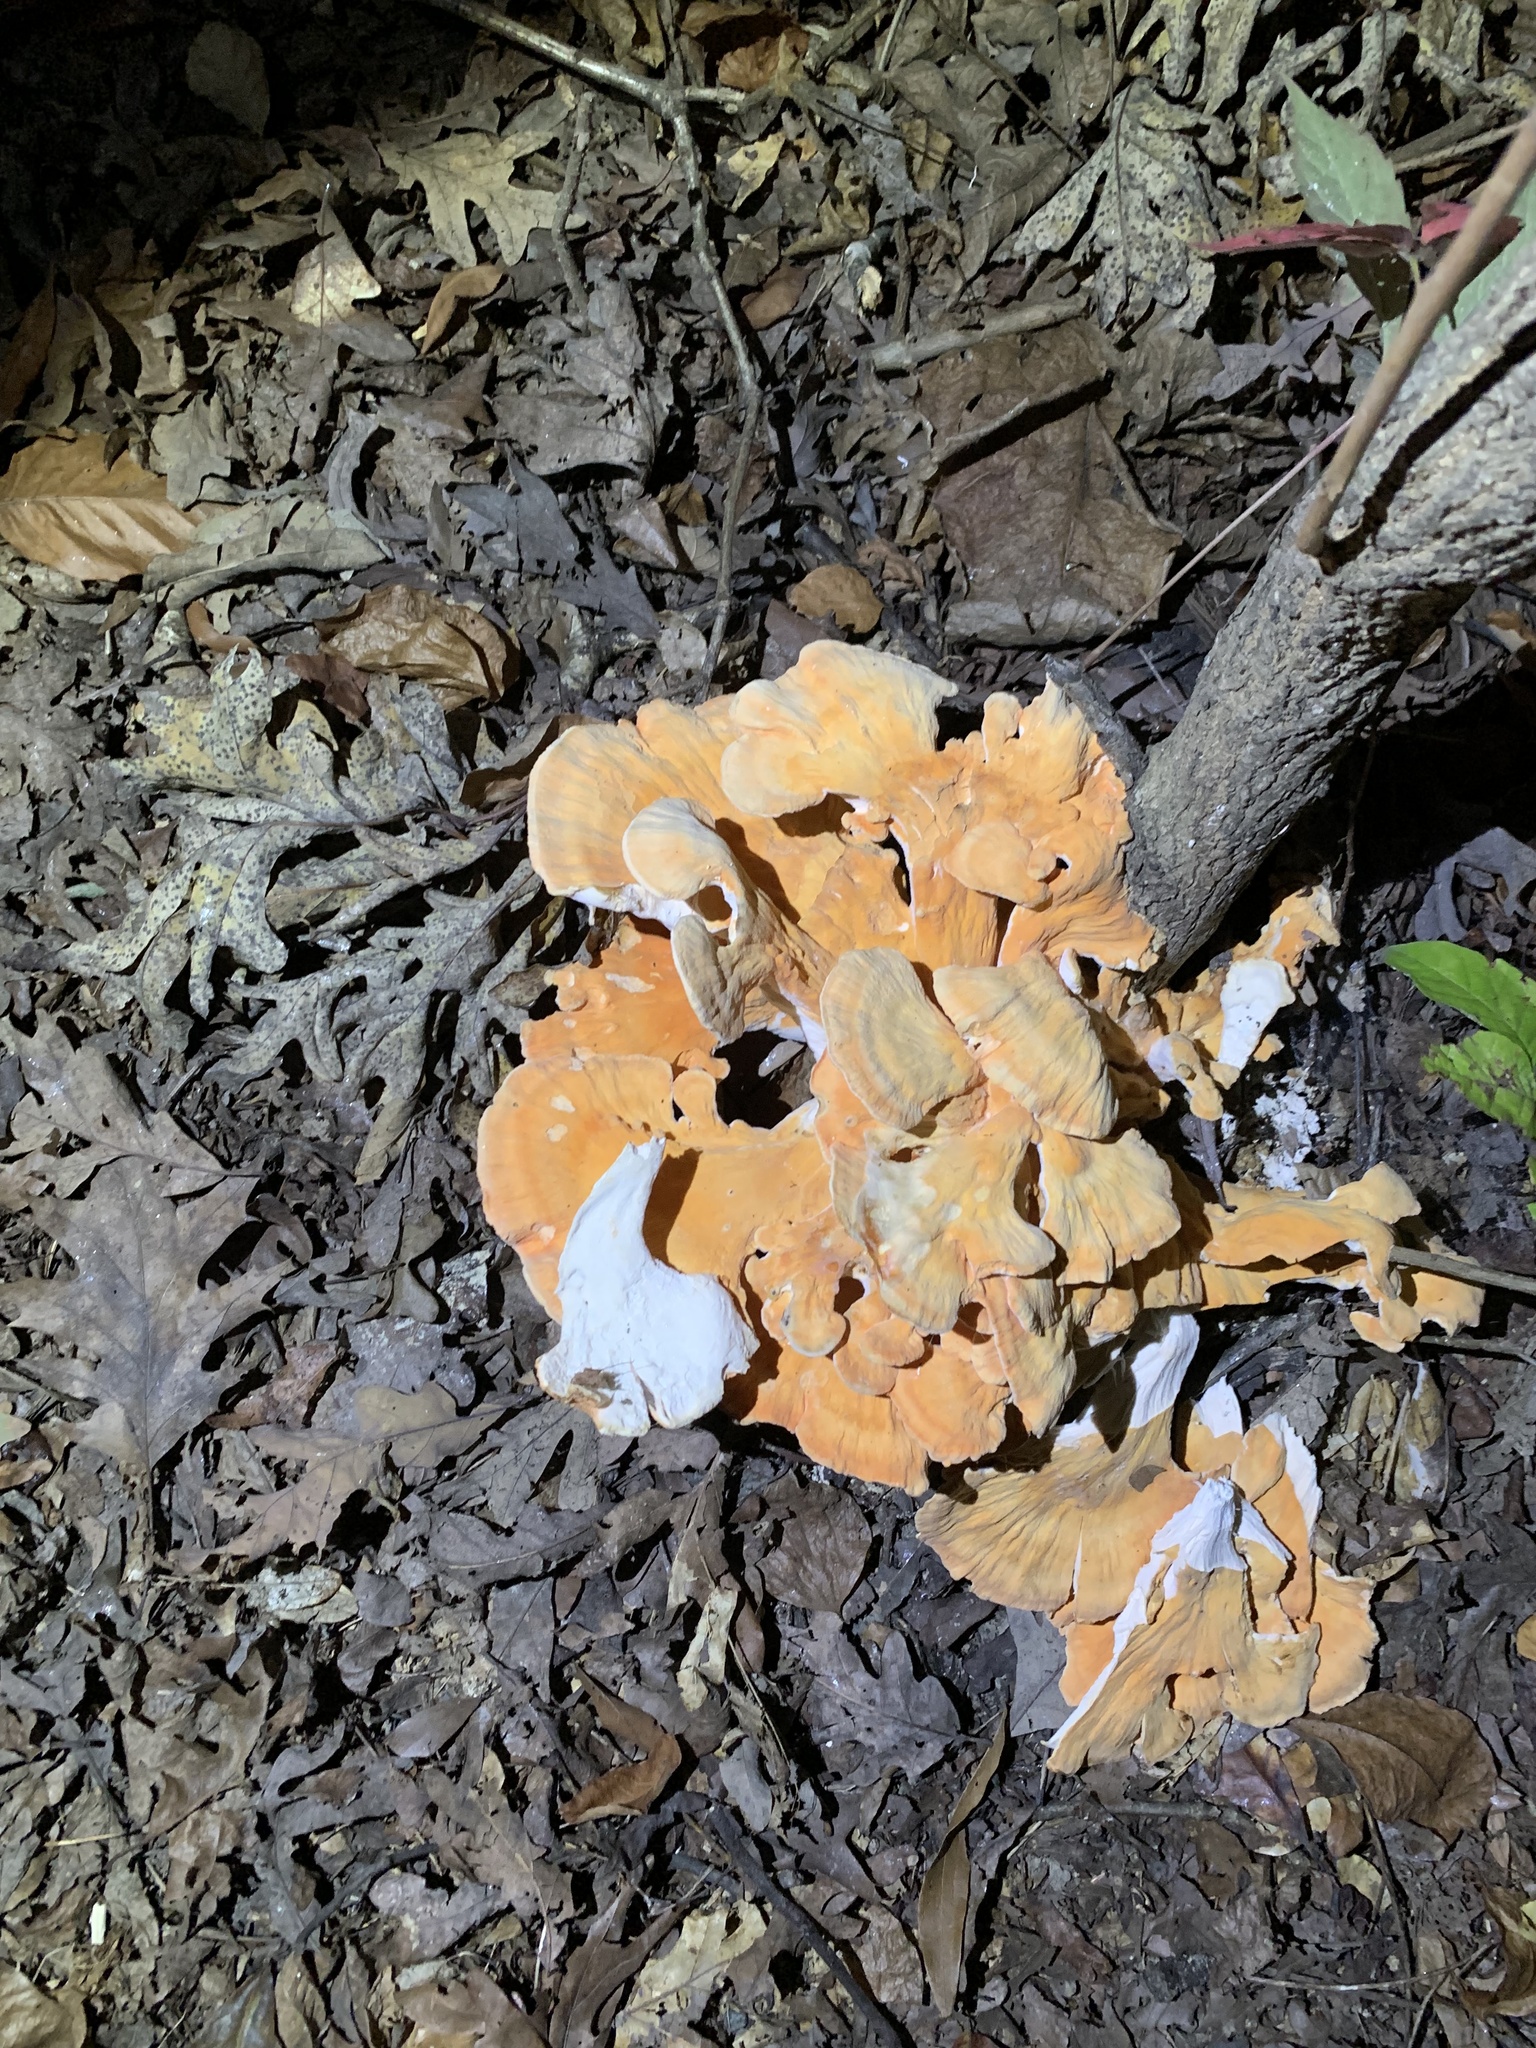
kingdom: Fungi
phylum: Basidiomycota
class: Agaricomycetes
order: Polyporales
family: Laetiporaceae
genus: Laetiporus
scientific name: Laetiporus sulphureus
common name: Chicken of the woods
